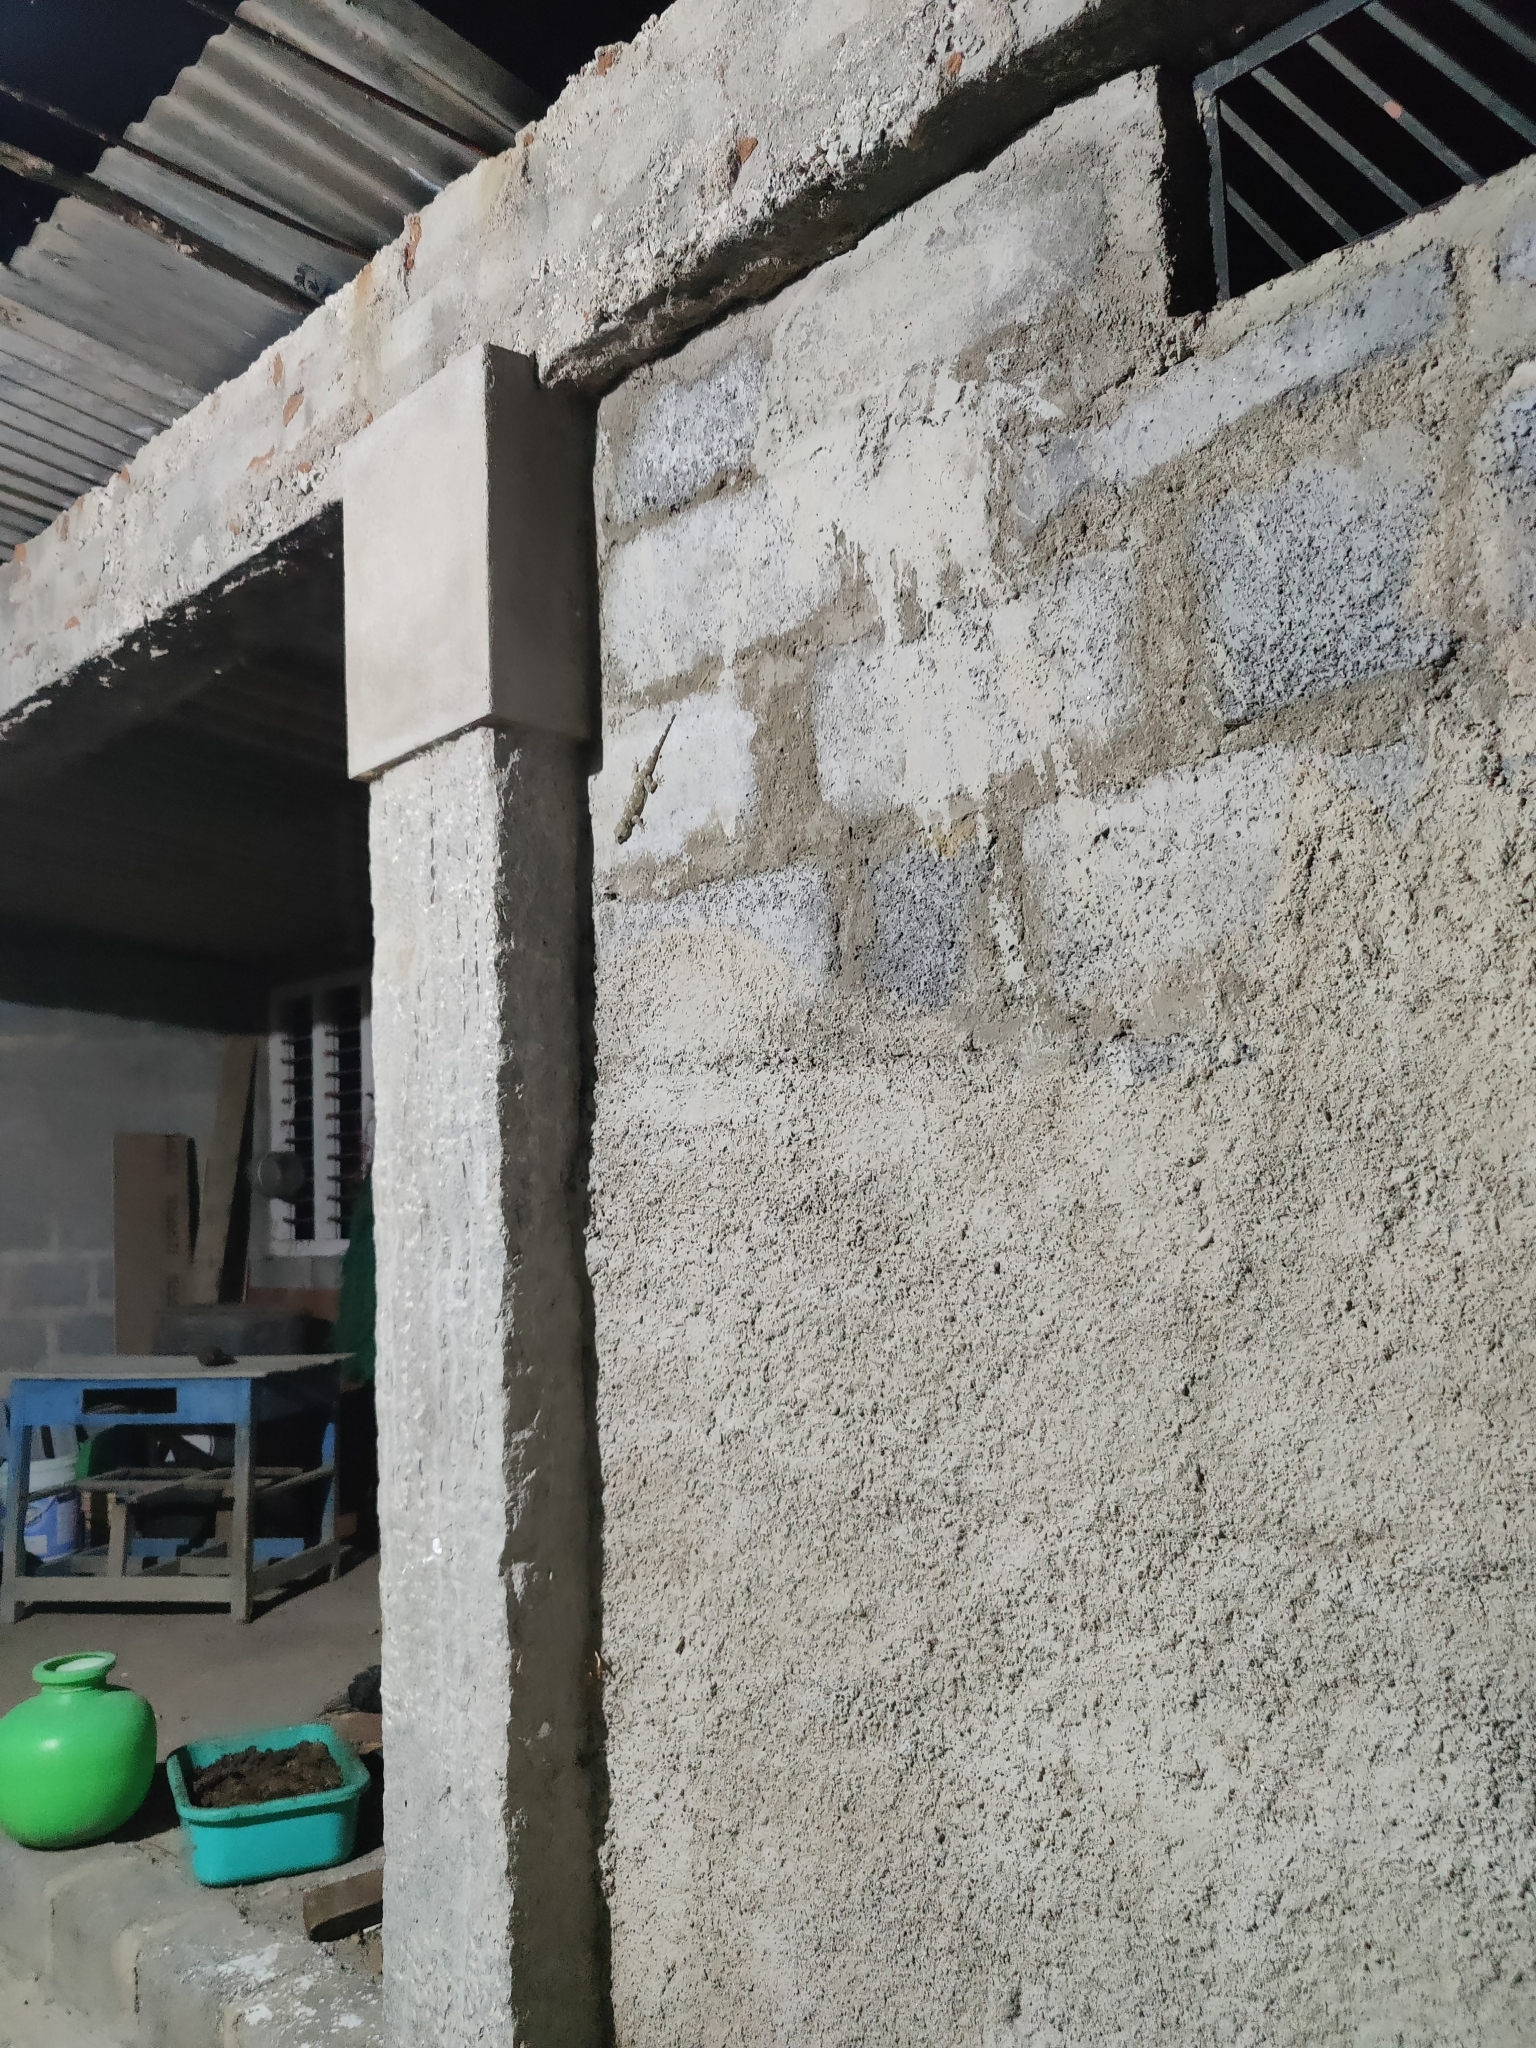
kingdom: Animalia
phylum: Chordata
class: Squamata
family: Gekkonidae
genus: Hemidactylus
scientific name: Hemidactylus raya
